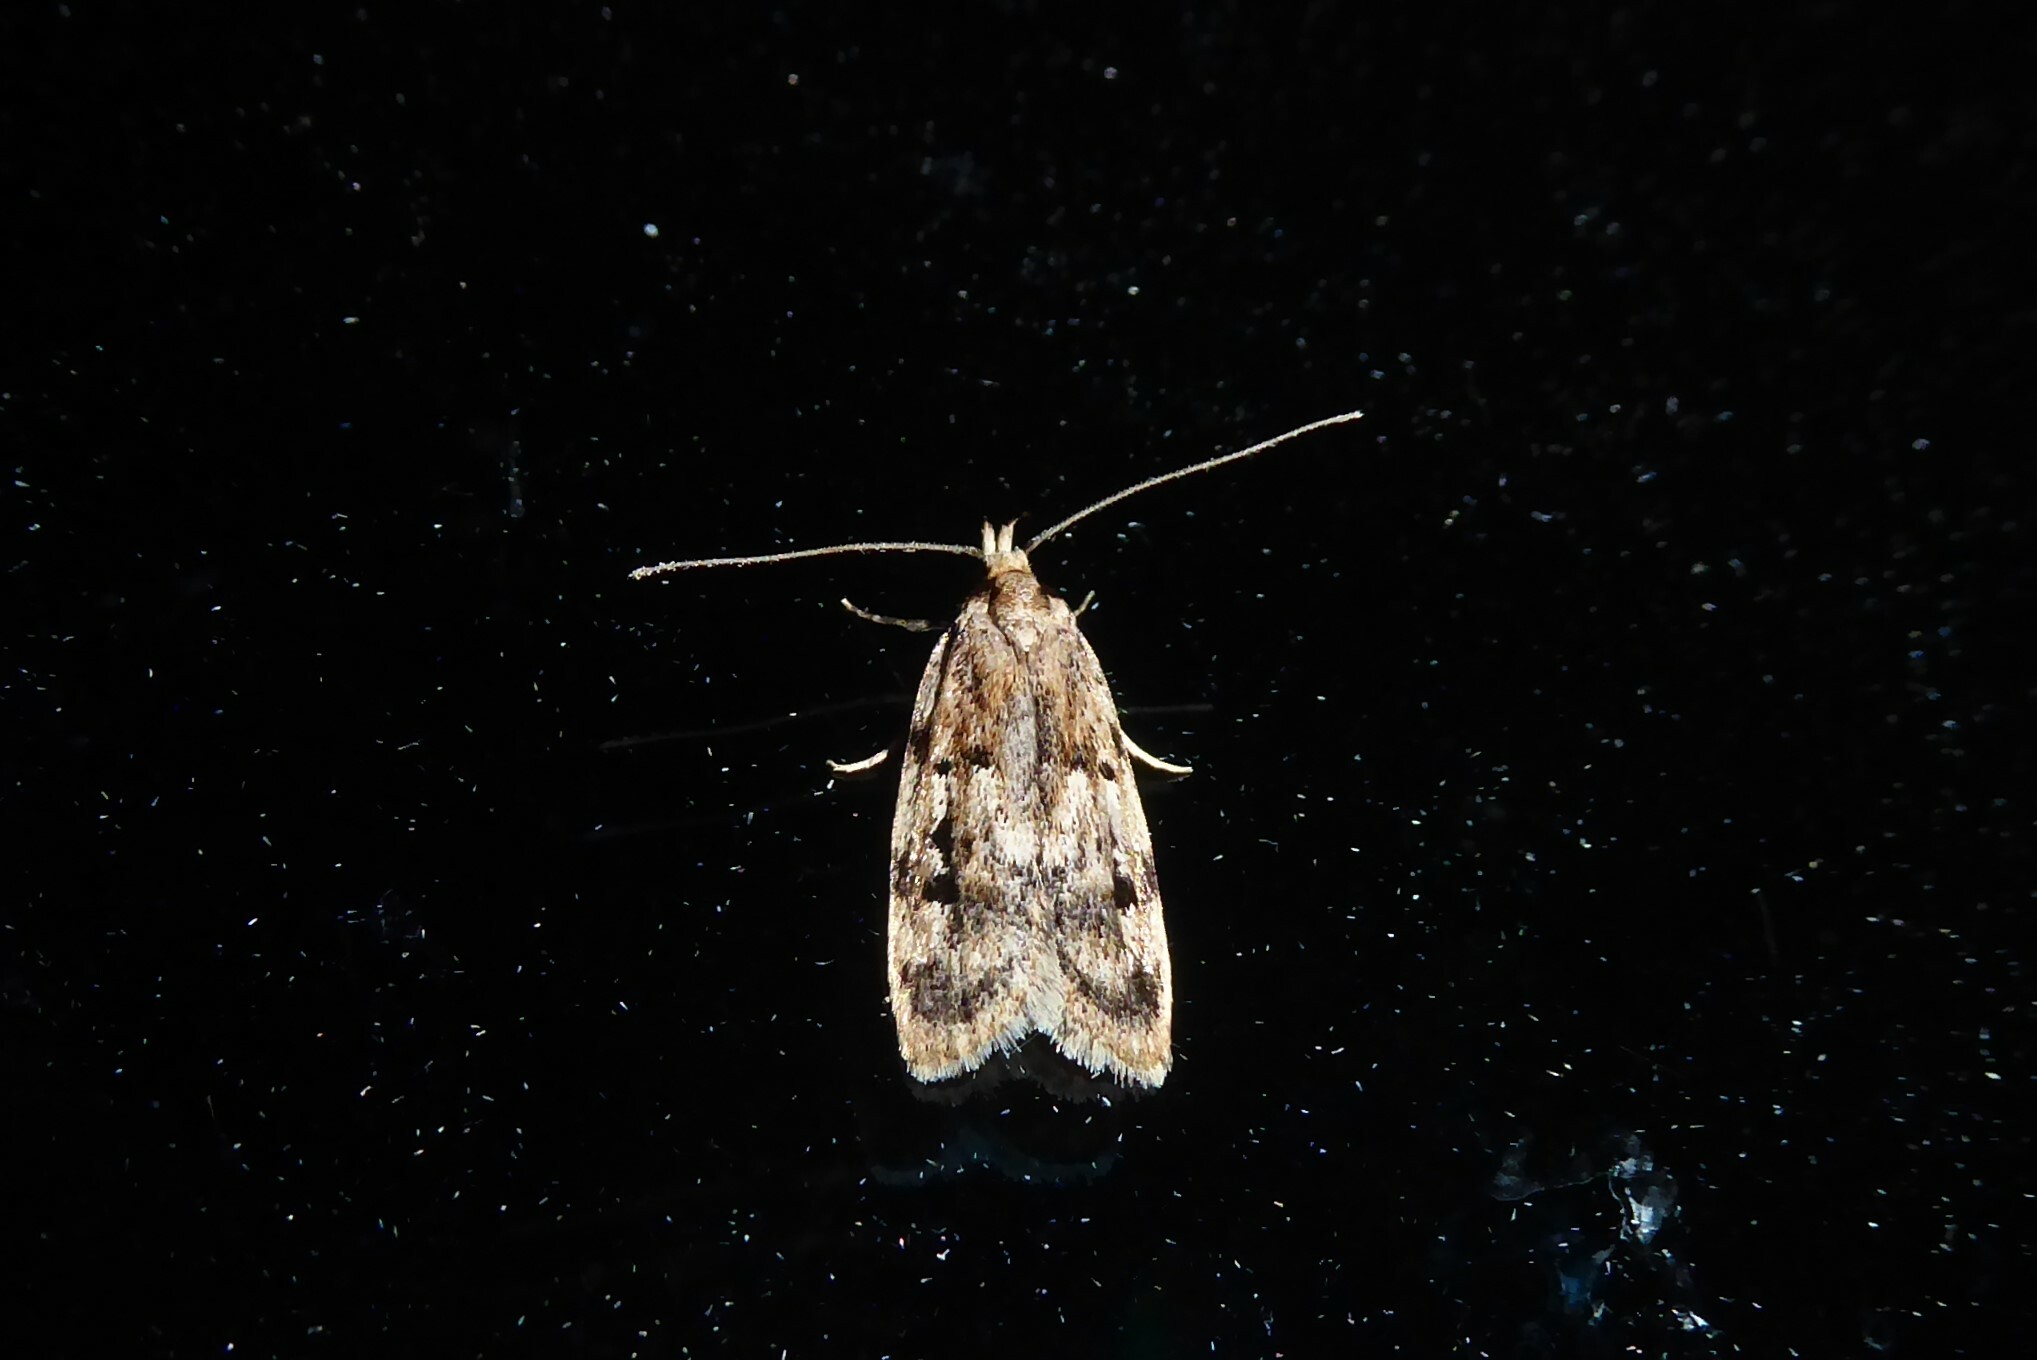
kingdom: Animalia
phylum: Arthropoda
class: Insecta
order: Lepidoptera
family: Oecophoridae
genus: Barea
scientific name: Barea exarcha
